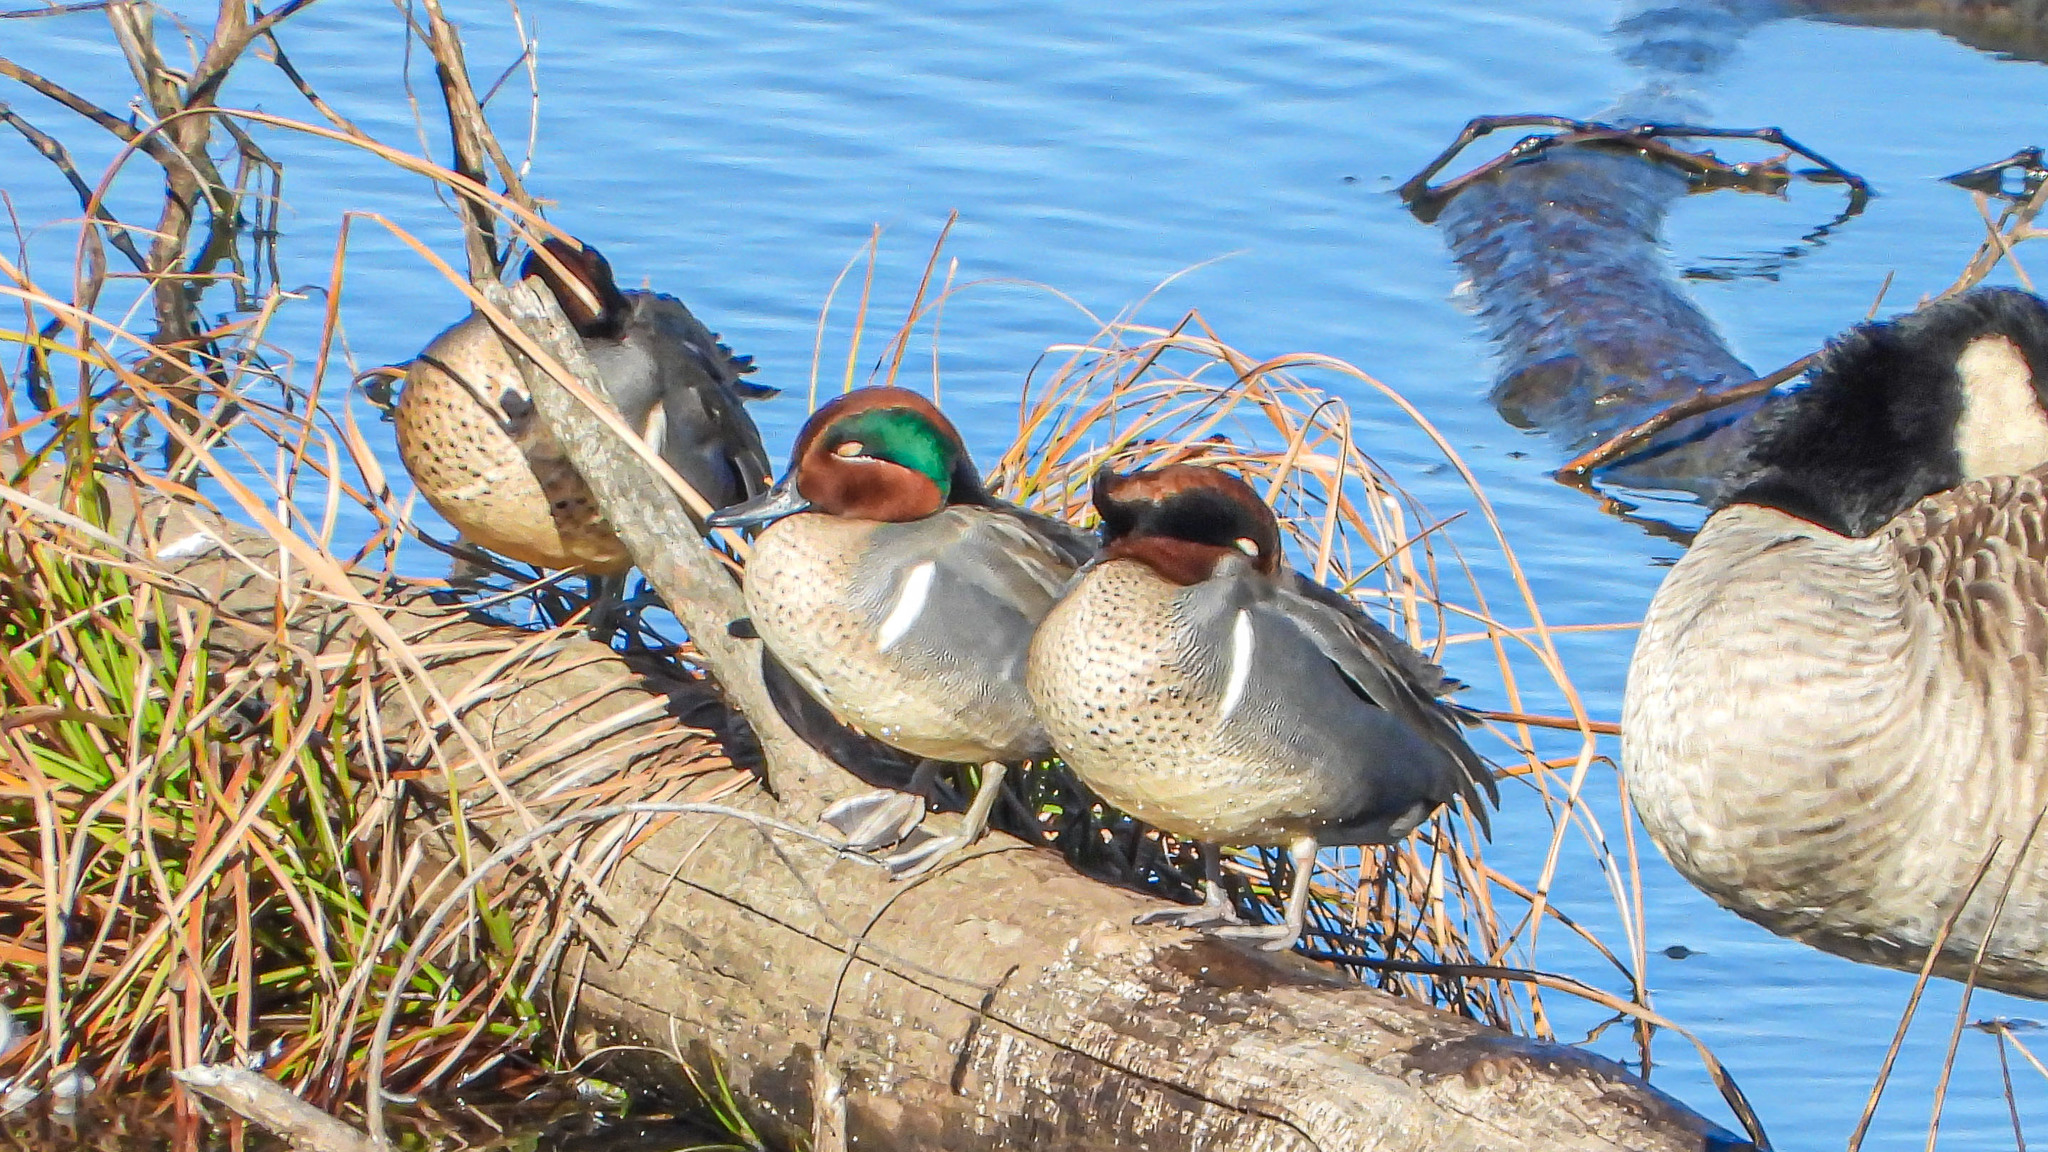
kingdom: Animalia
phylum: Chordata
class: Aves
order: Anseriformes
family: Anatidae
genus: Anas
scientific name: Anas carolinensis
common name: Green-winged teal
